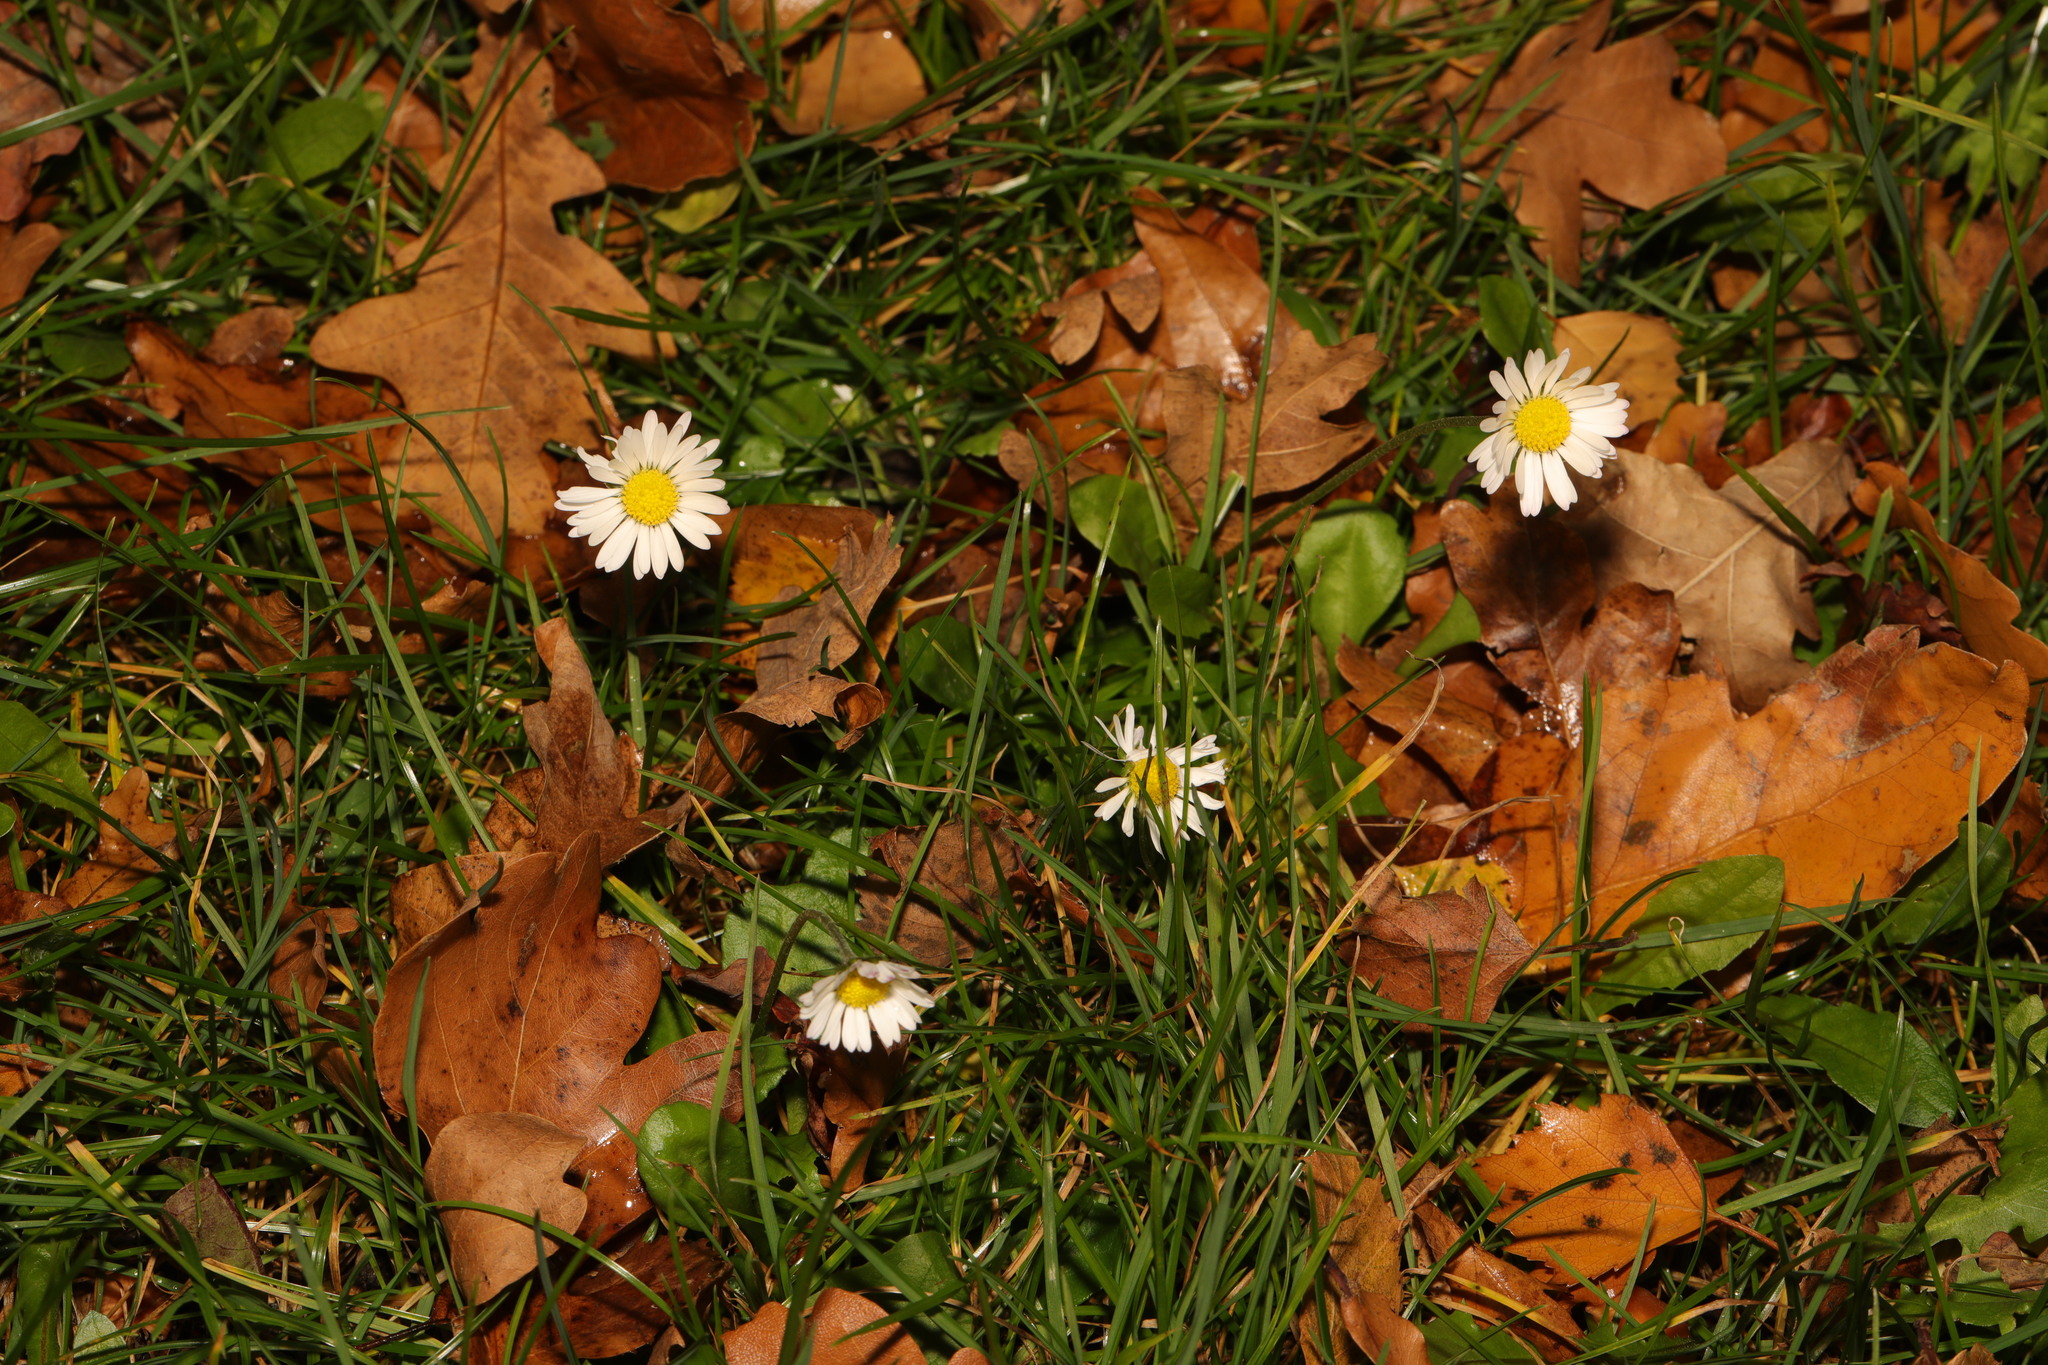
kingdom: Plantae
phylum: Tracheophyta
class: Magnoliopsida
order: Asterales
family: Asteraceae
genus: Bellis
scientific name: Bellis perennis
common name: Lawndaisy
